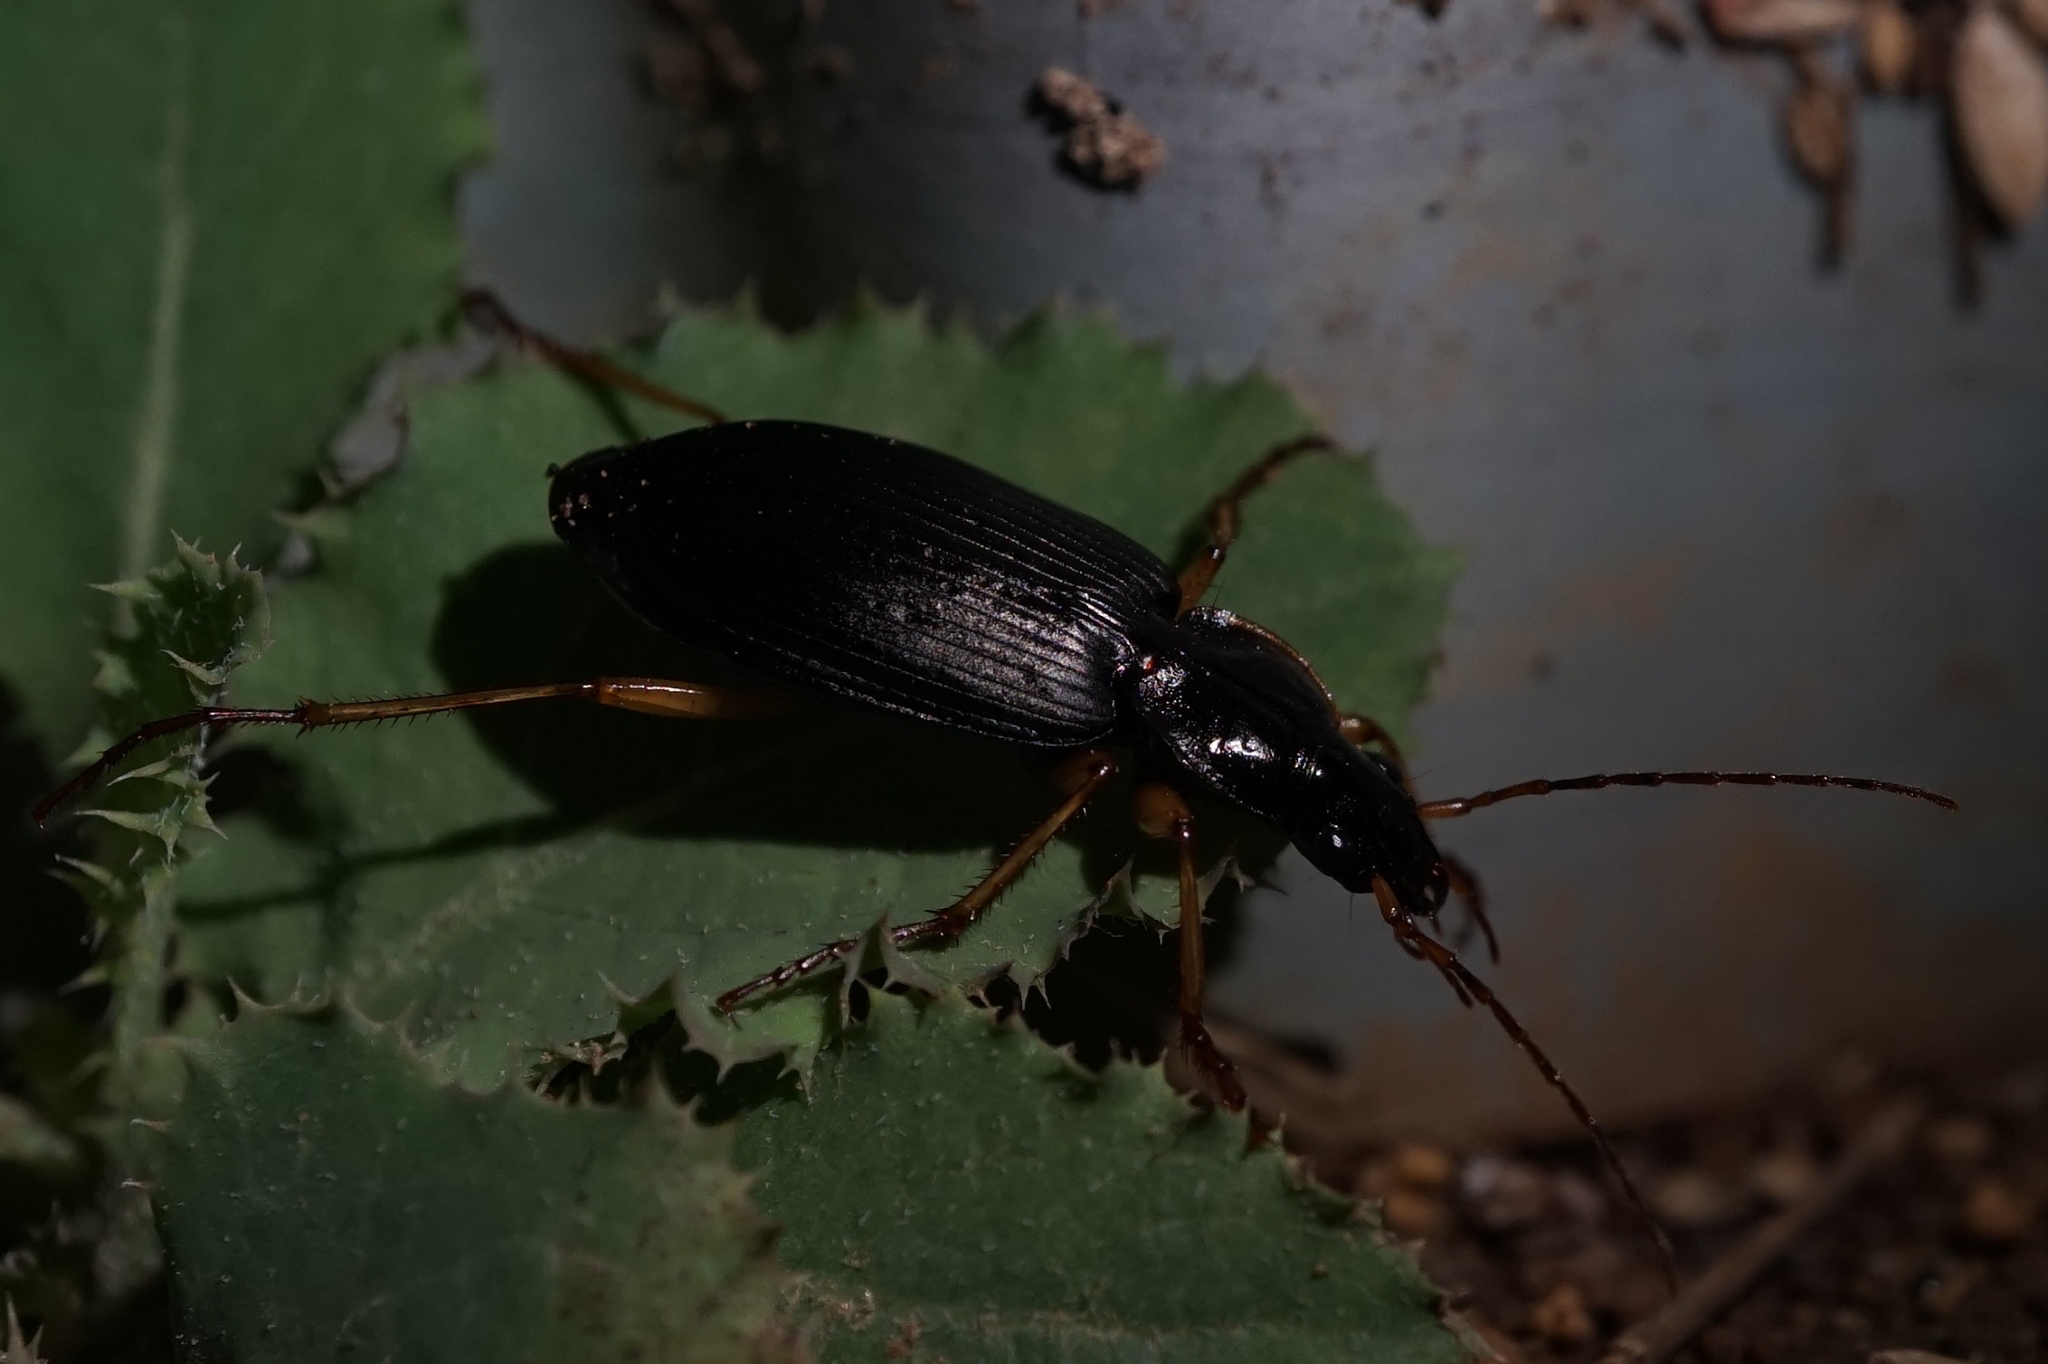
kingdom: Animalia
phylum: Arthropoda
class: Insecta
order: Coleoptera
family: Carabidae
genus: Dolichus
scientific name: Dolichus halensis
